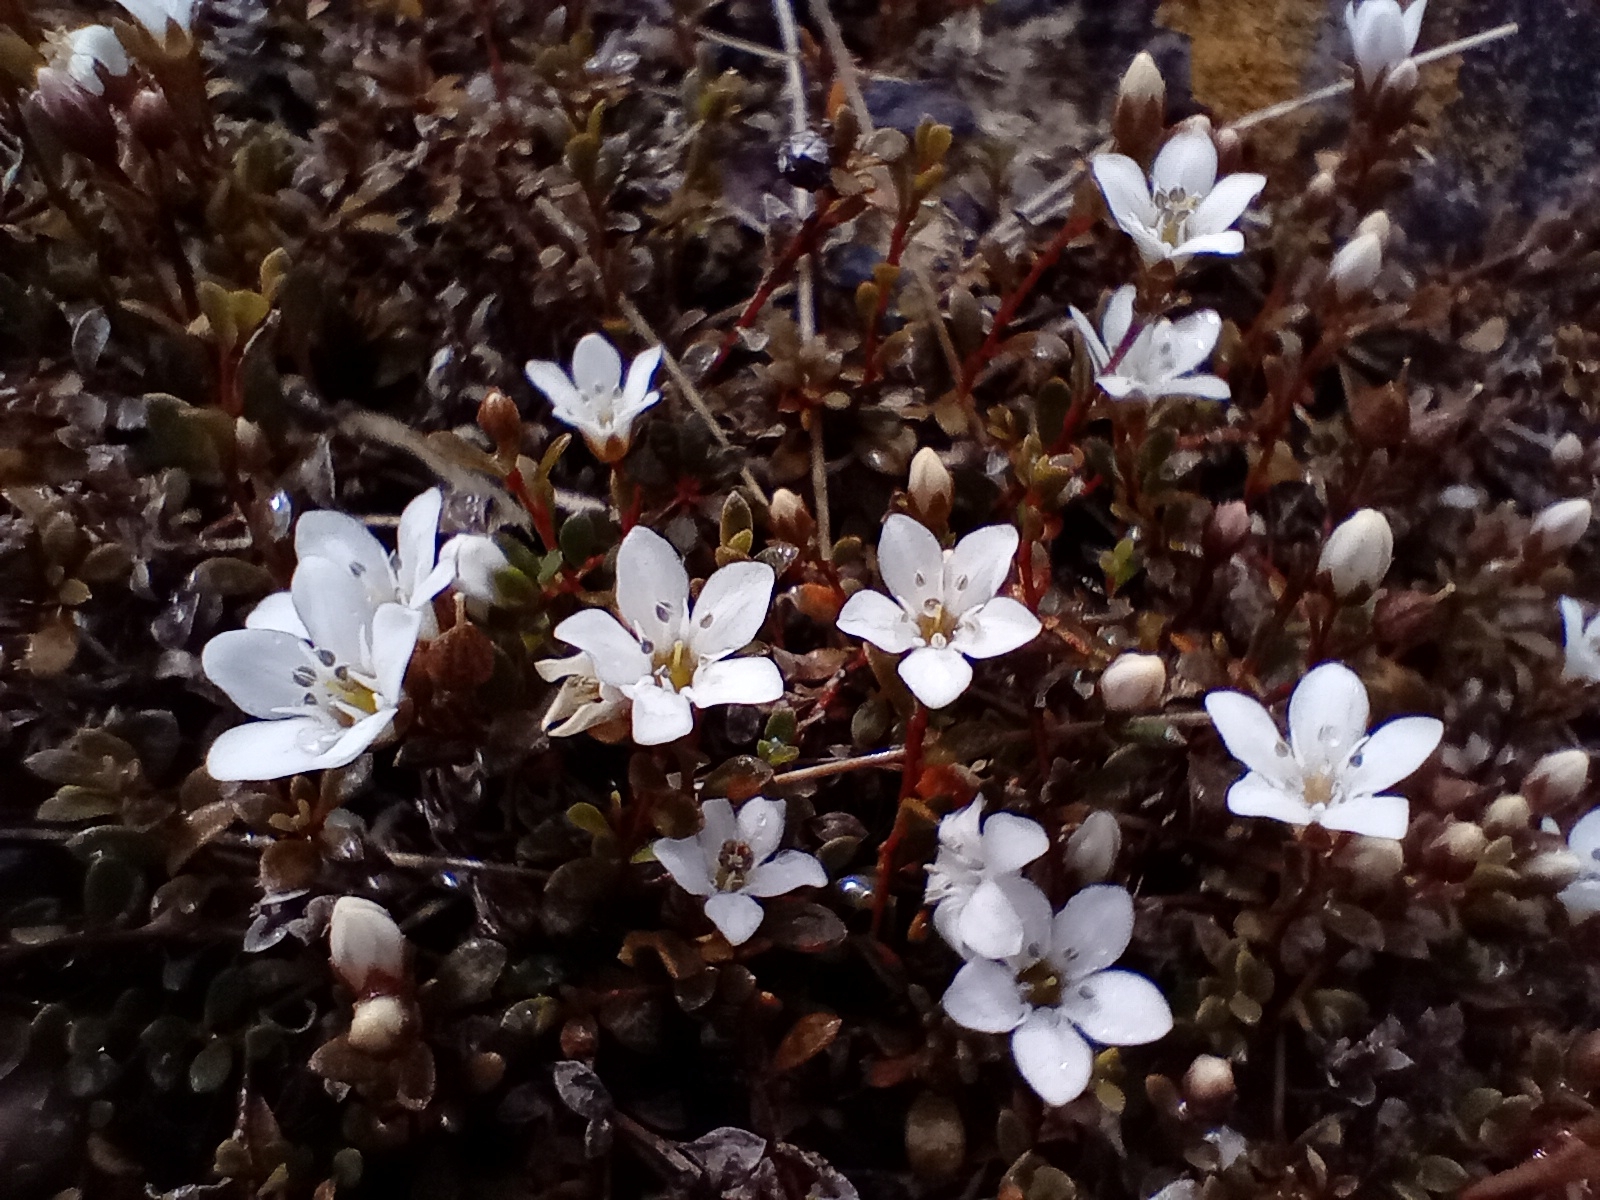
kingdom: Plantae
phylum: Tracheophyta
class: Magnoliopsida
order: Ericales
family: Primulaceae
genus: Samolus
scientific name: Samolus repens
